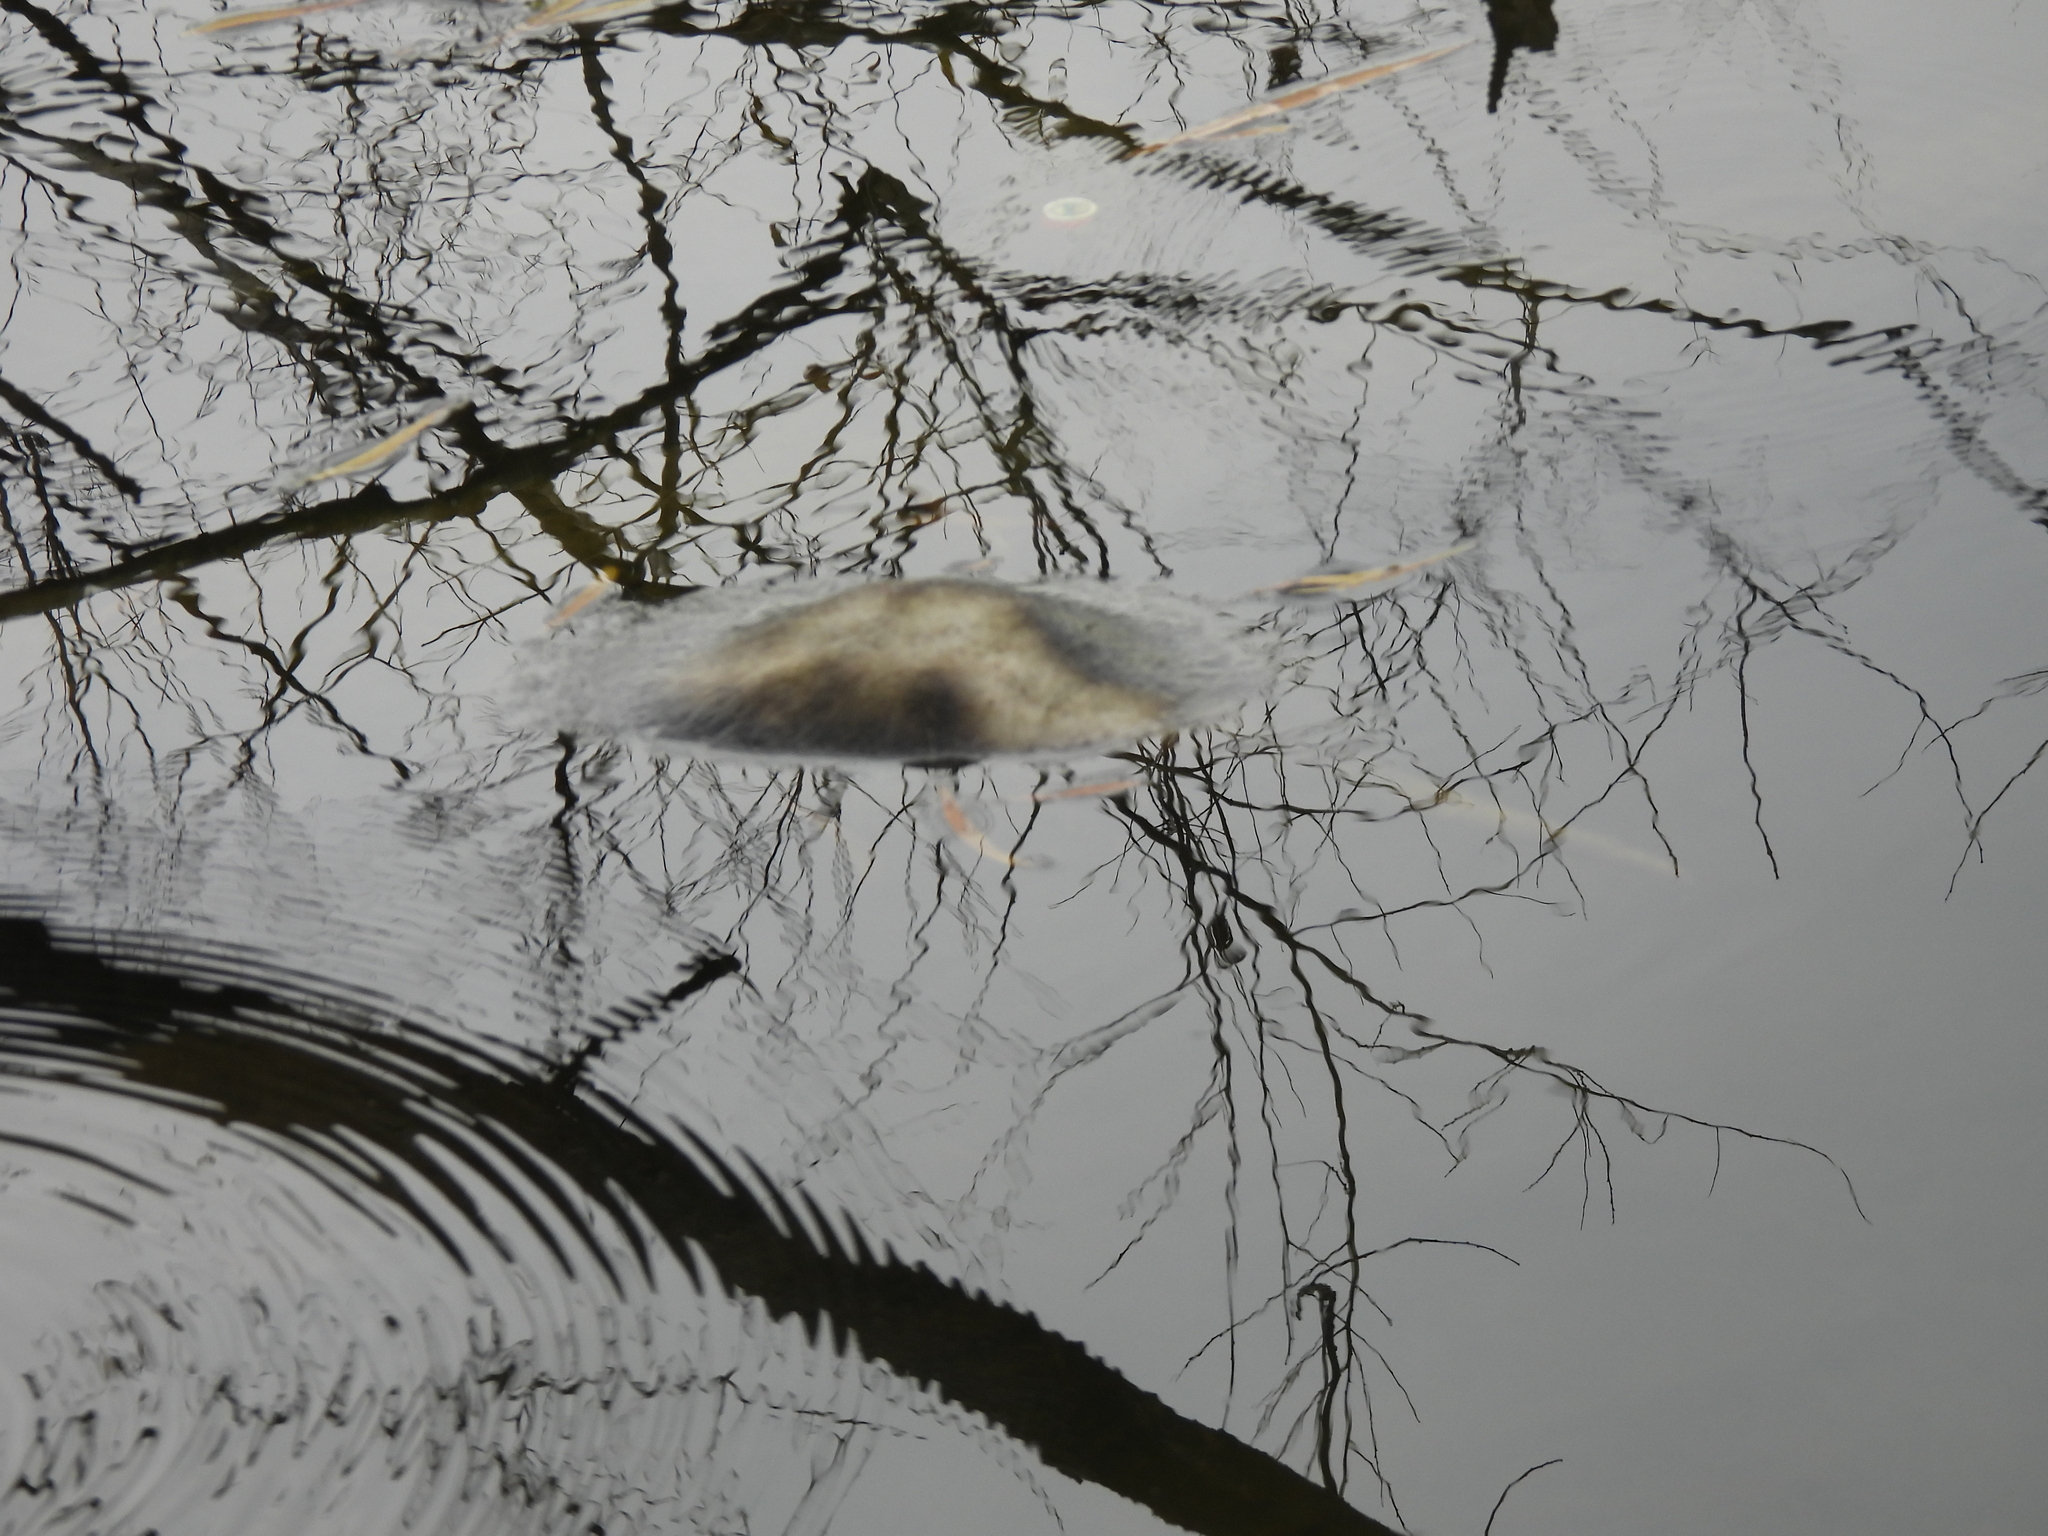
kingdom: Animalia
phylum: Chordata
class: Mammalia
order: Didelphimorphia
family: Didelphidae
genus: Didelphis
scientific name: Didelphis virginiana
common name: Virginia opossum
